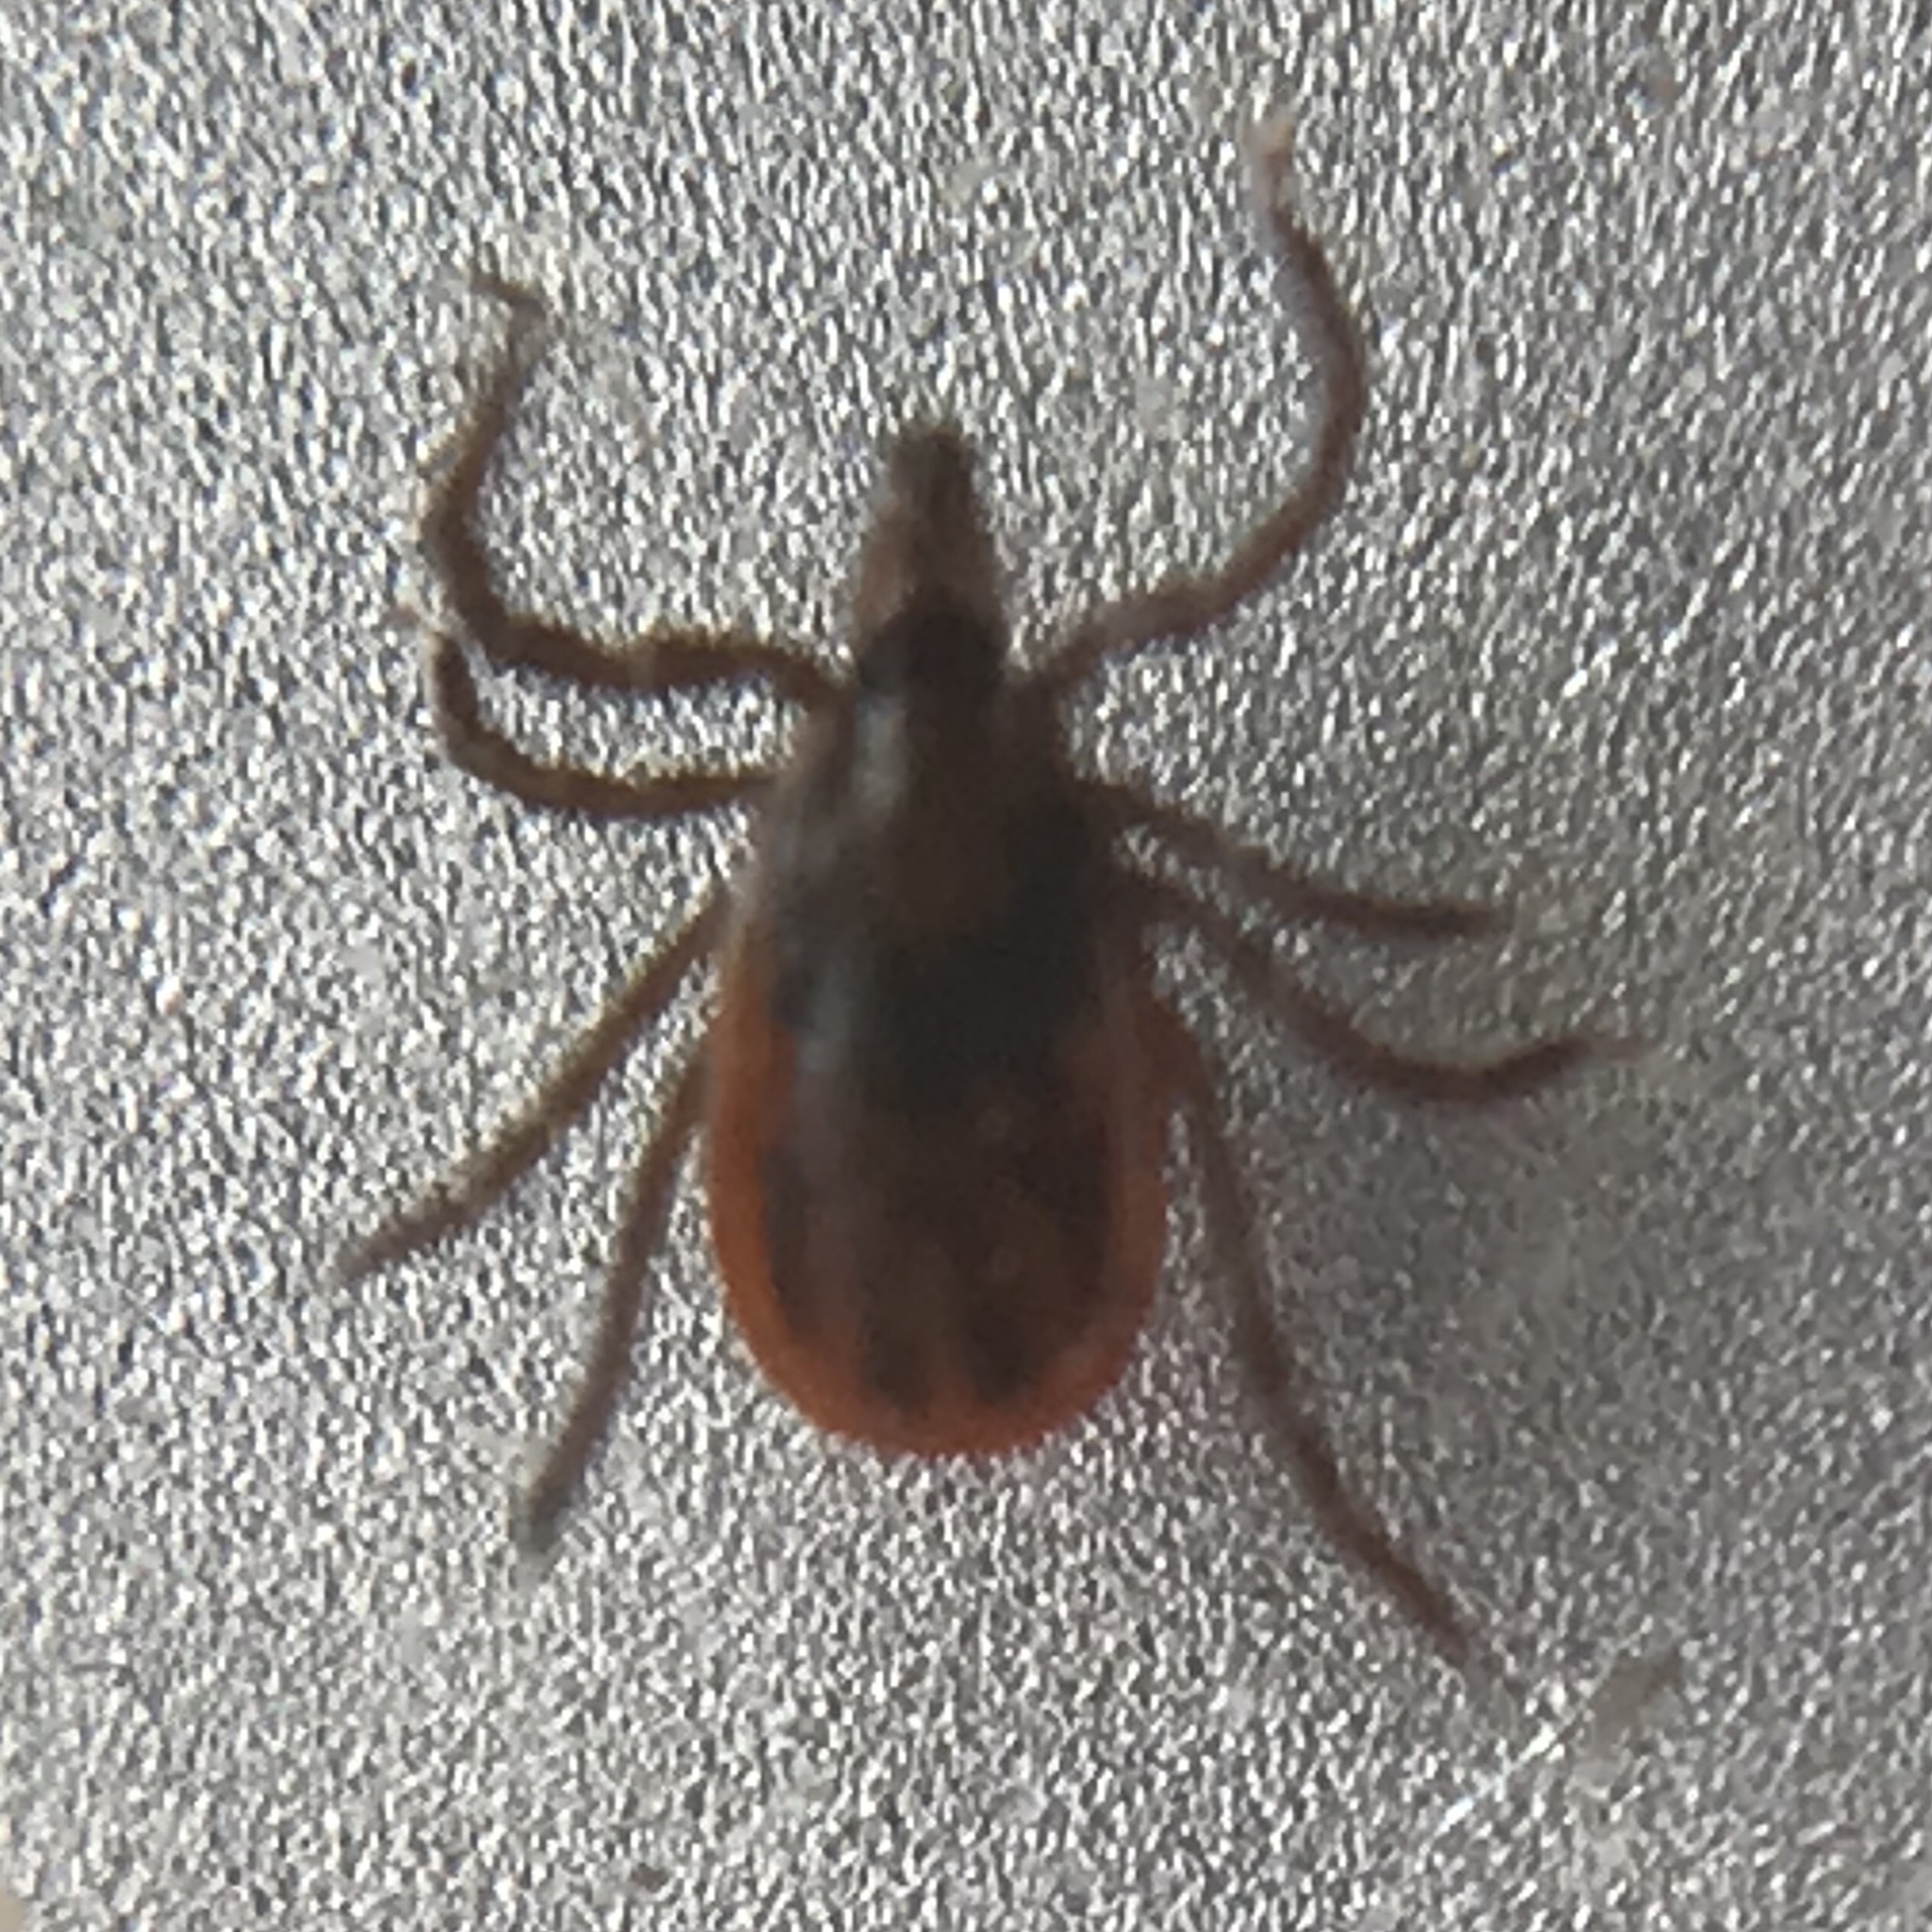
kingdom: Animalia
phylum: Arthropoda
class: Arachnida
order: Ixodida
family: Ixodidae
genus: Ixodes
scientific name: Ixodes scapularis
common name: Black legged tick
